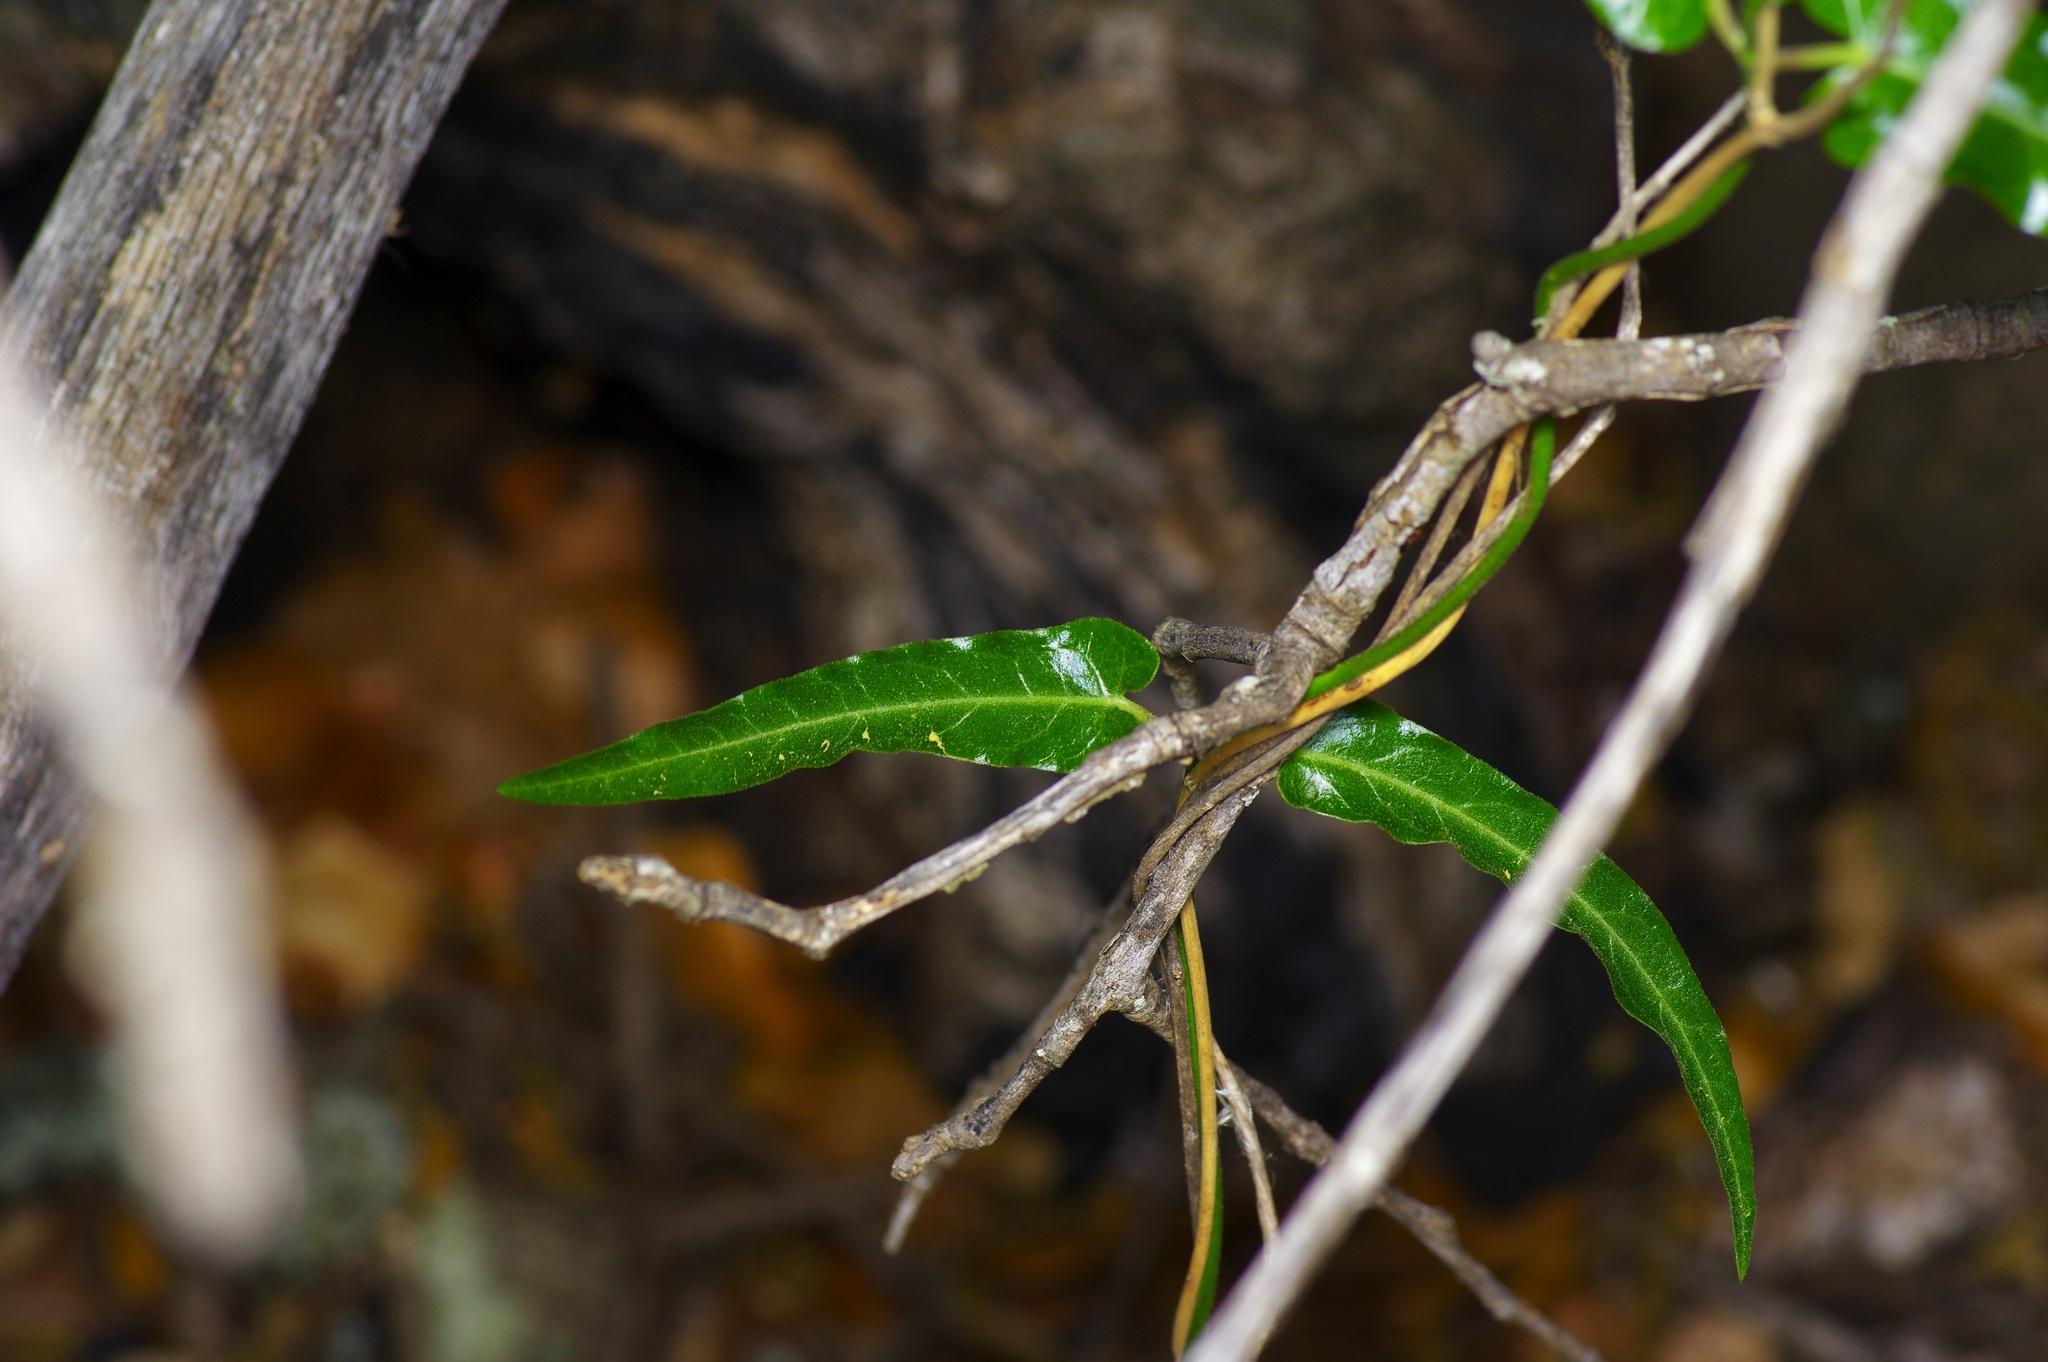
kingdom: Plantae
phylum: Tracheophyta
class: Magnoliopsida
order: Gentianales
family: Apocynaceae
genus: Funastrum
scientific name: Funastrum crispum
